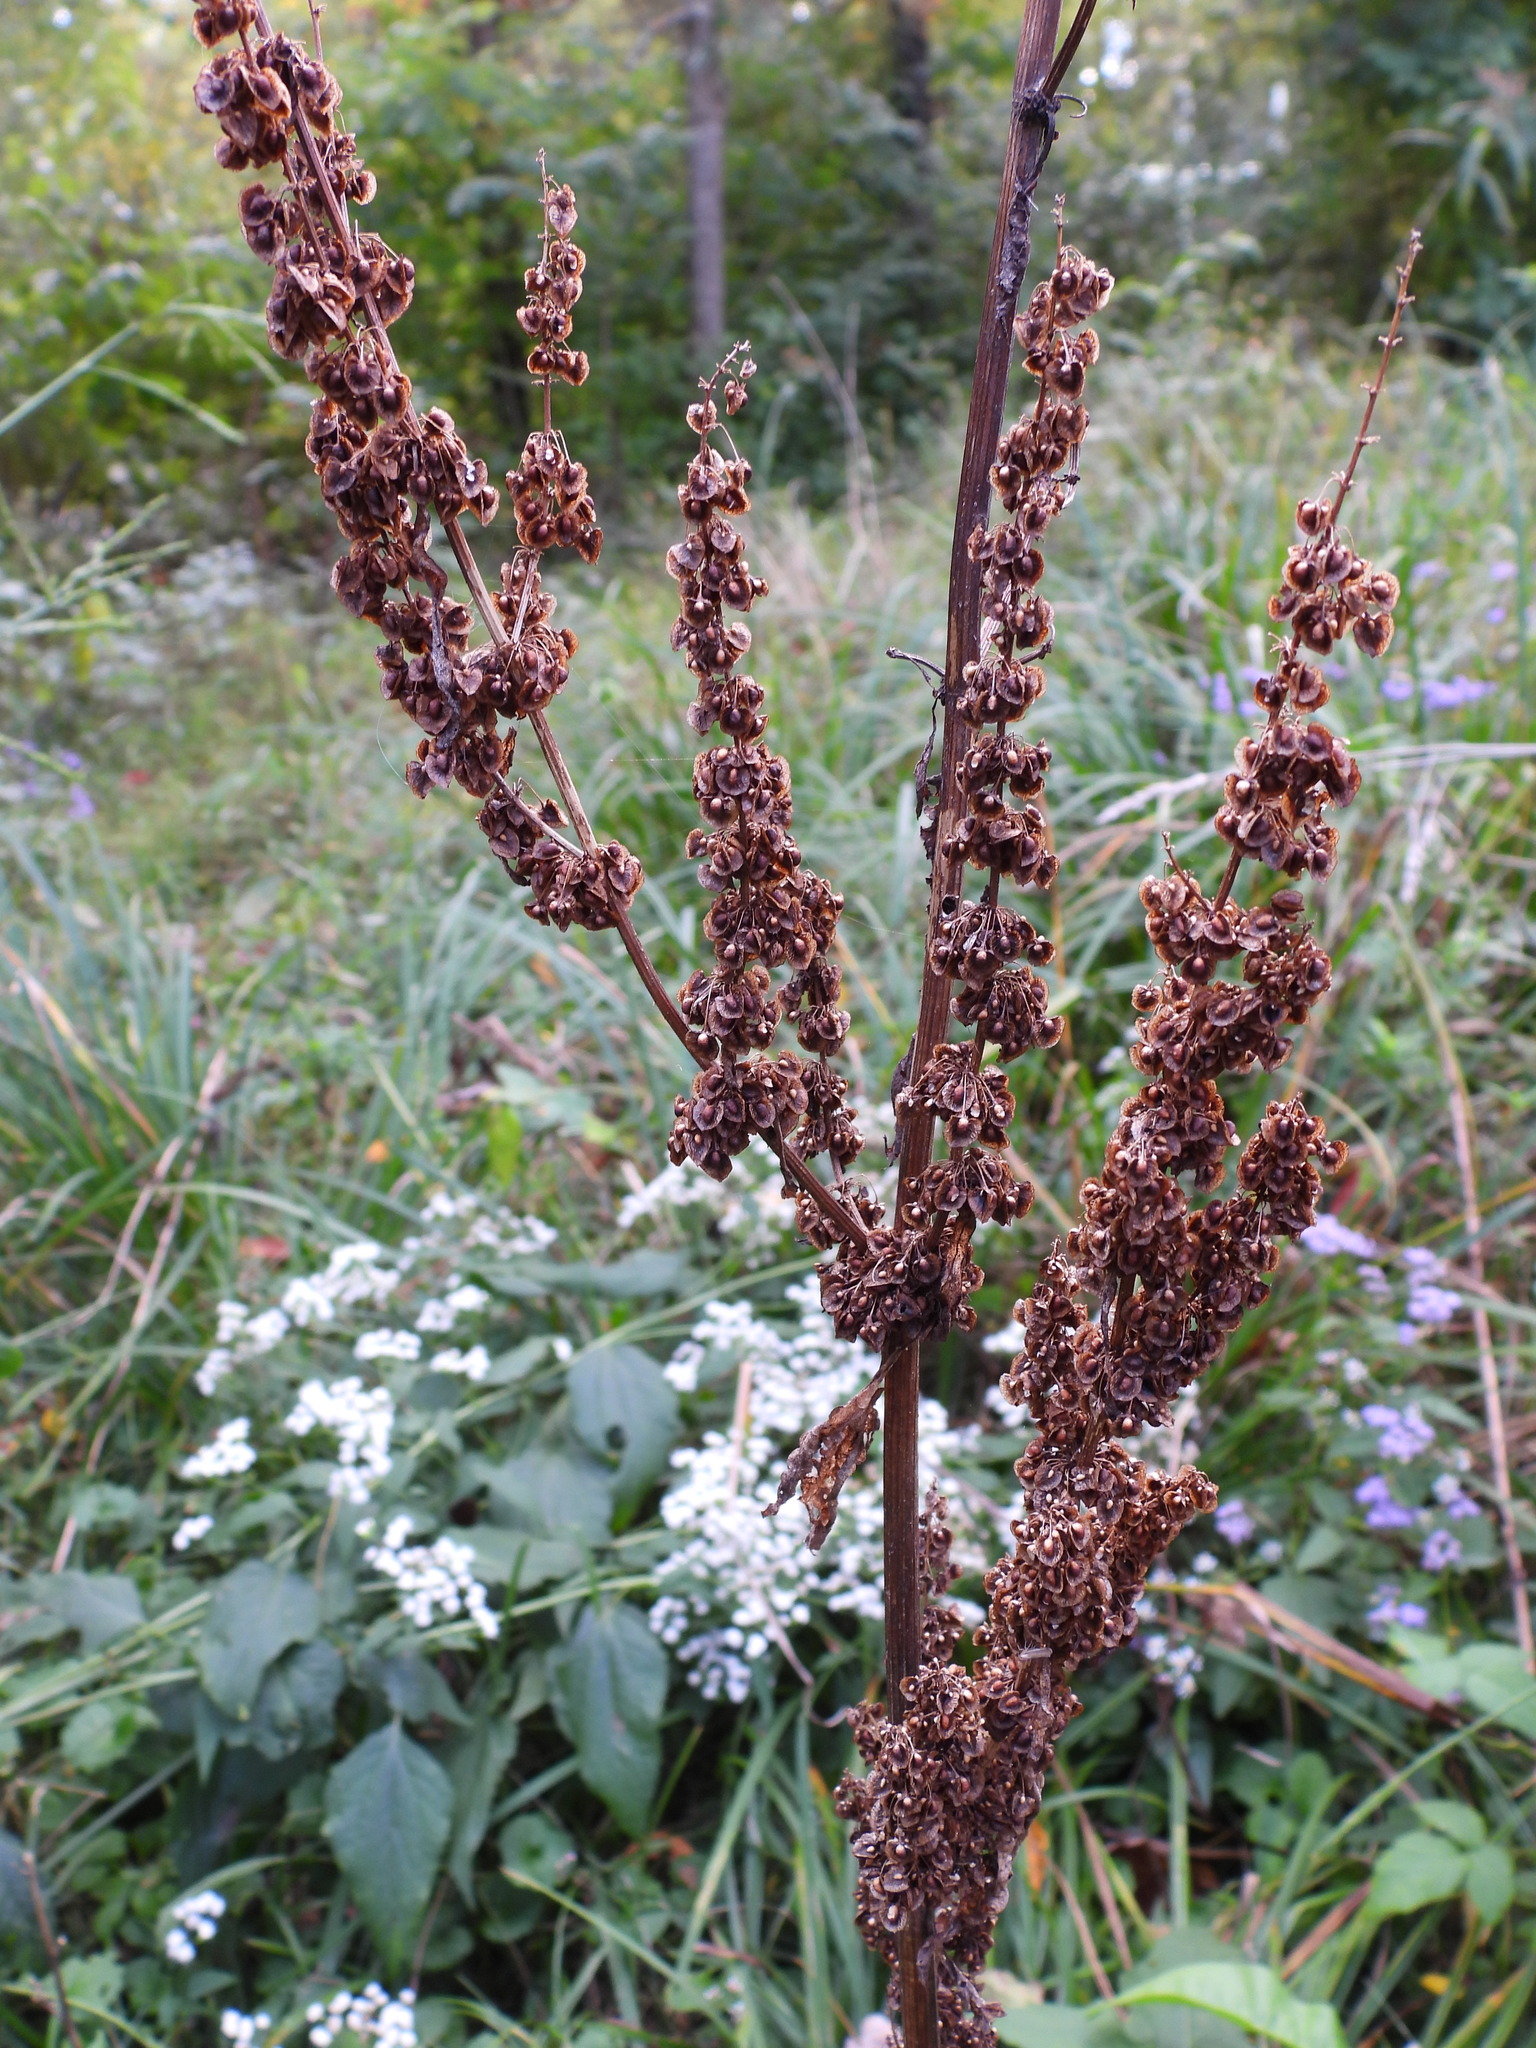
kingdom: Plantae
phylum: Tracheophyta
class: Magnoliopsida
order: Caryophyllales
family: Polygonaceae
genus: Rumex
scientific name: Rumex crispus
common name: Curled dock
